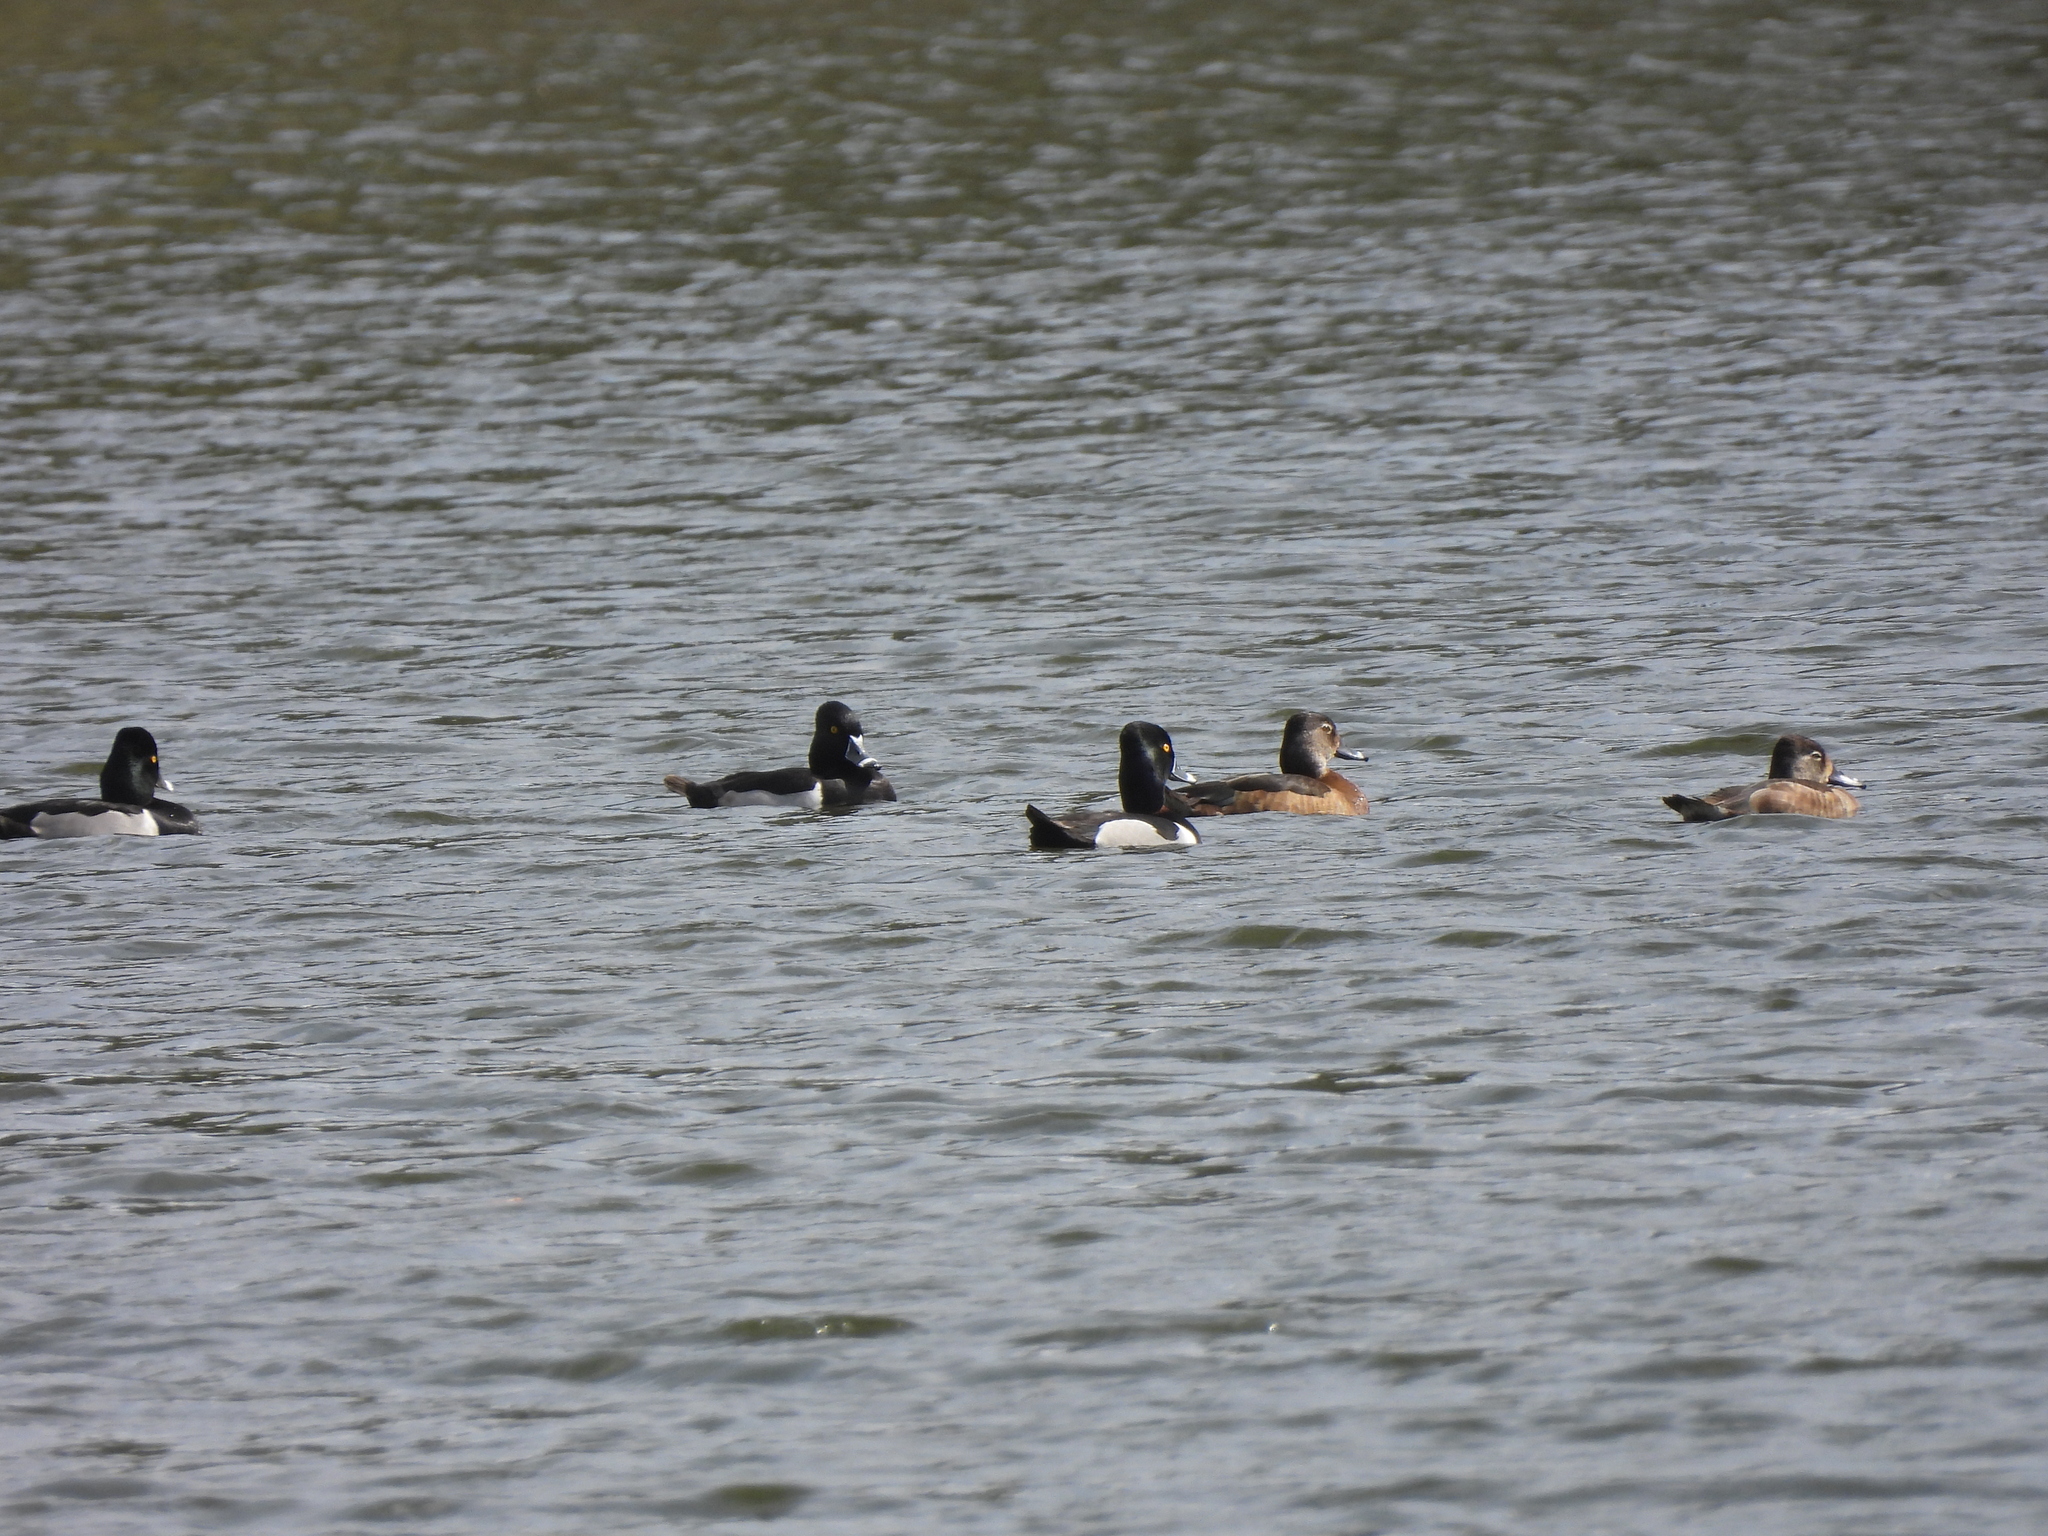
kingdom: Animalia
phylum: Chordata
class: Aves
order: Anseriformes
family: Anatidae
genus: Aythya
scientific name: Aythya collaris
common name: Ring-necked duck
